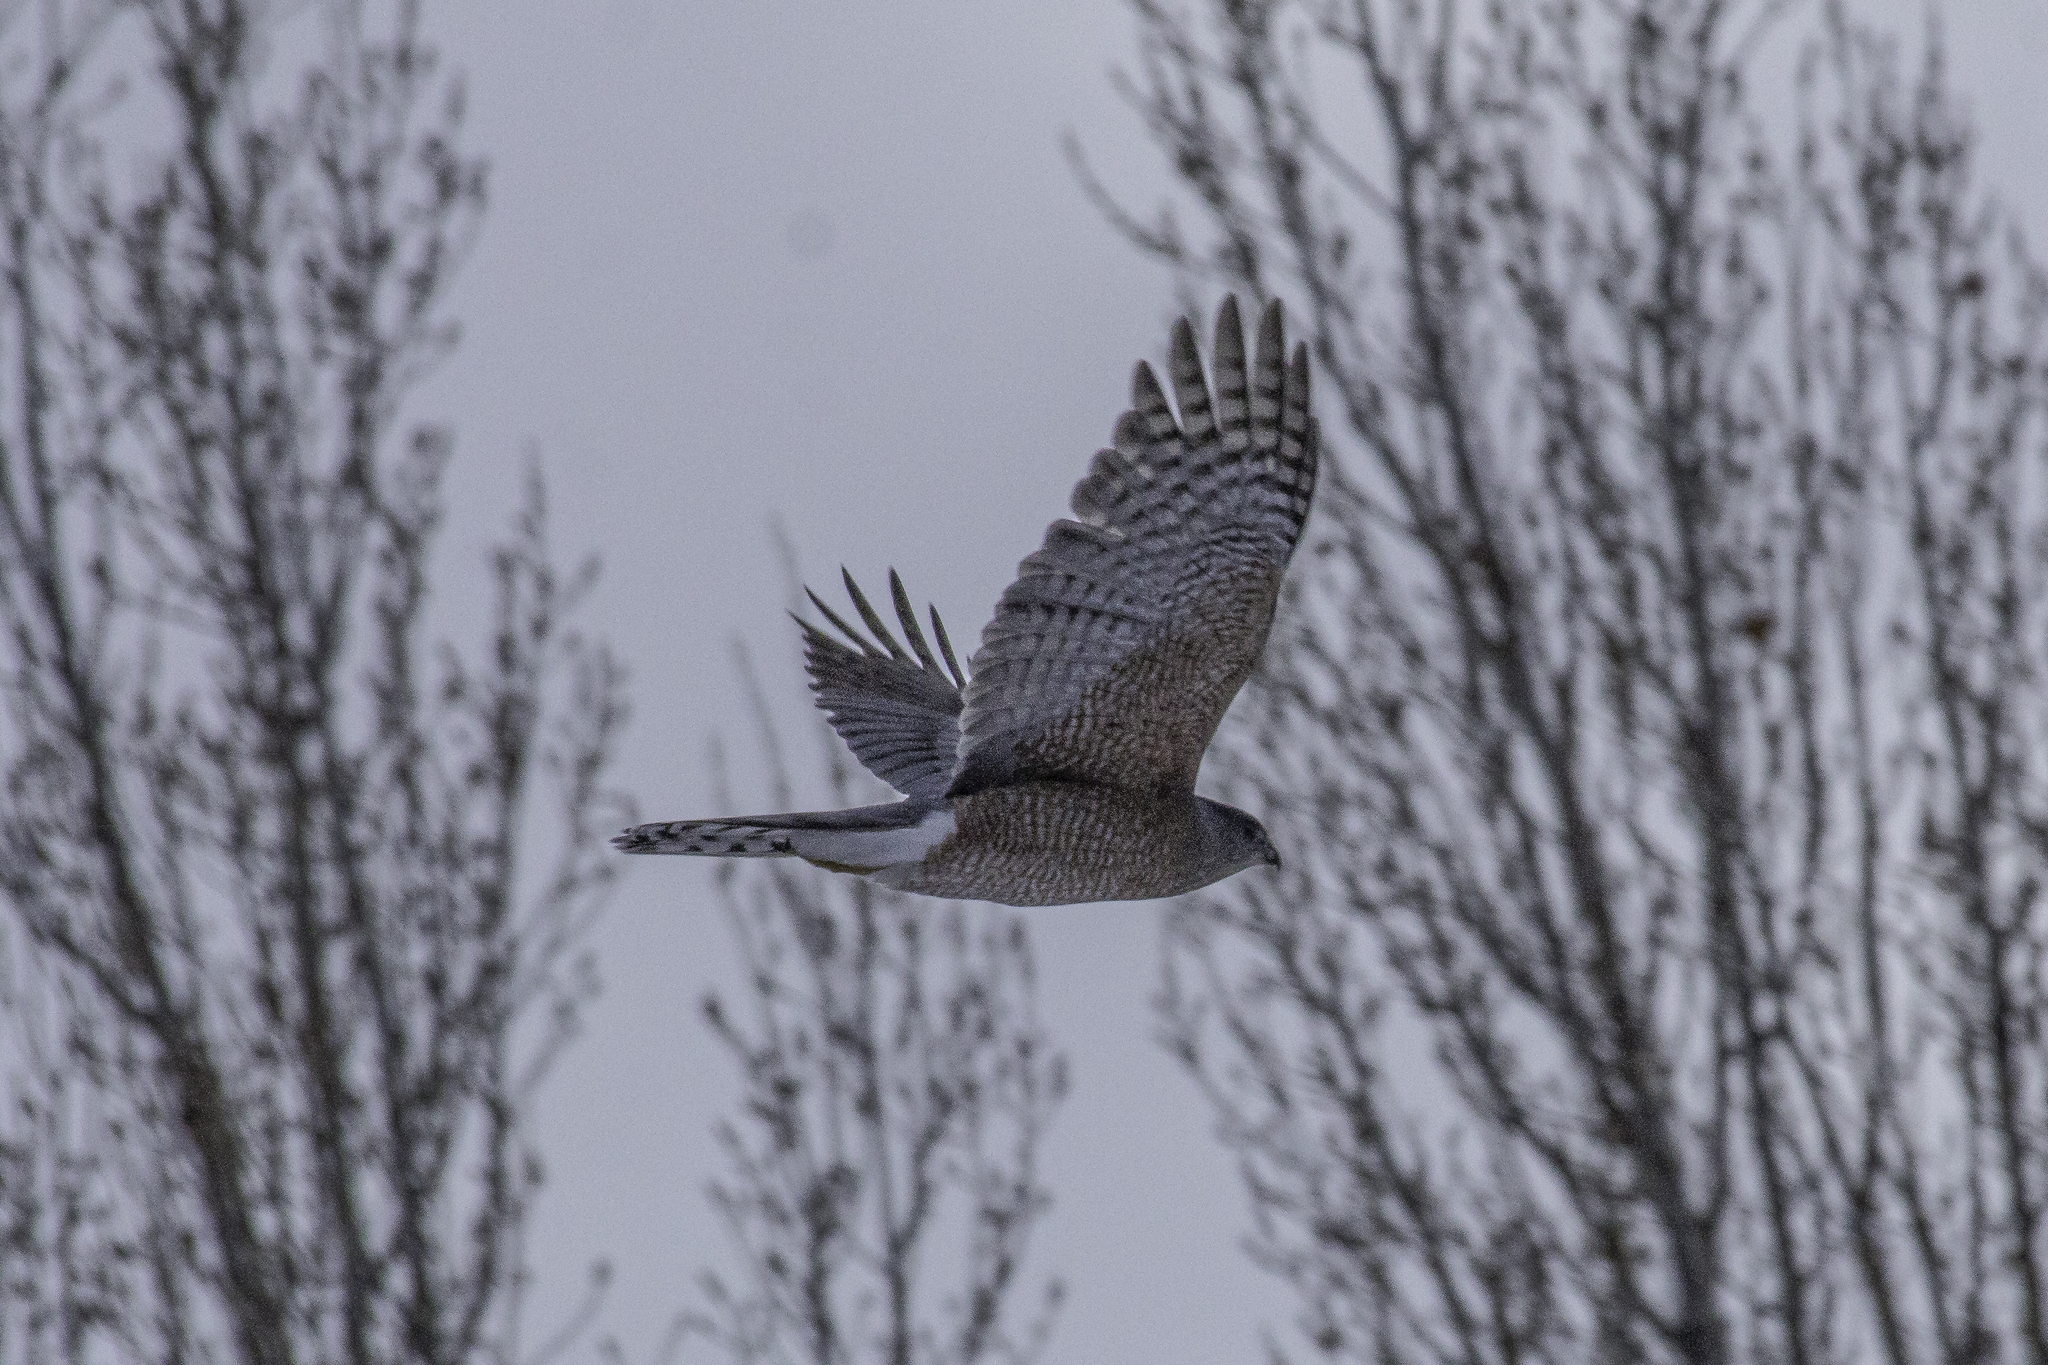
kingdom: Animalia
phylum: Chordata
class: Aves
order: Accipitriformes
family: Accipitridae
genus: Accipiter
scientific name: Accipiter cooperii
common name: Cooper's hawk
